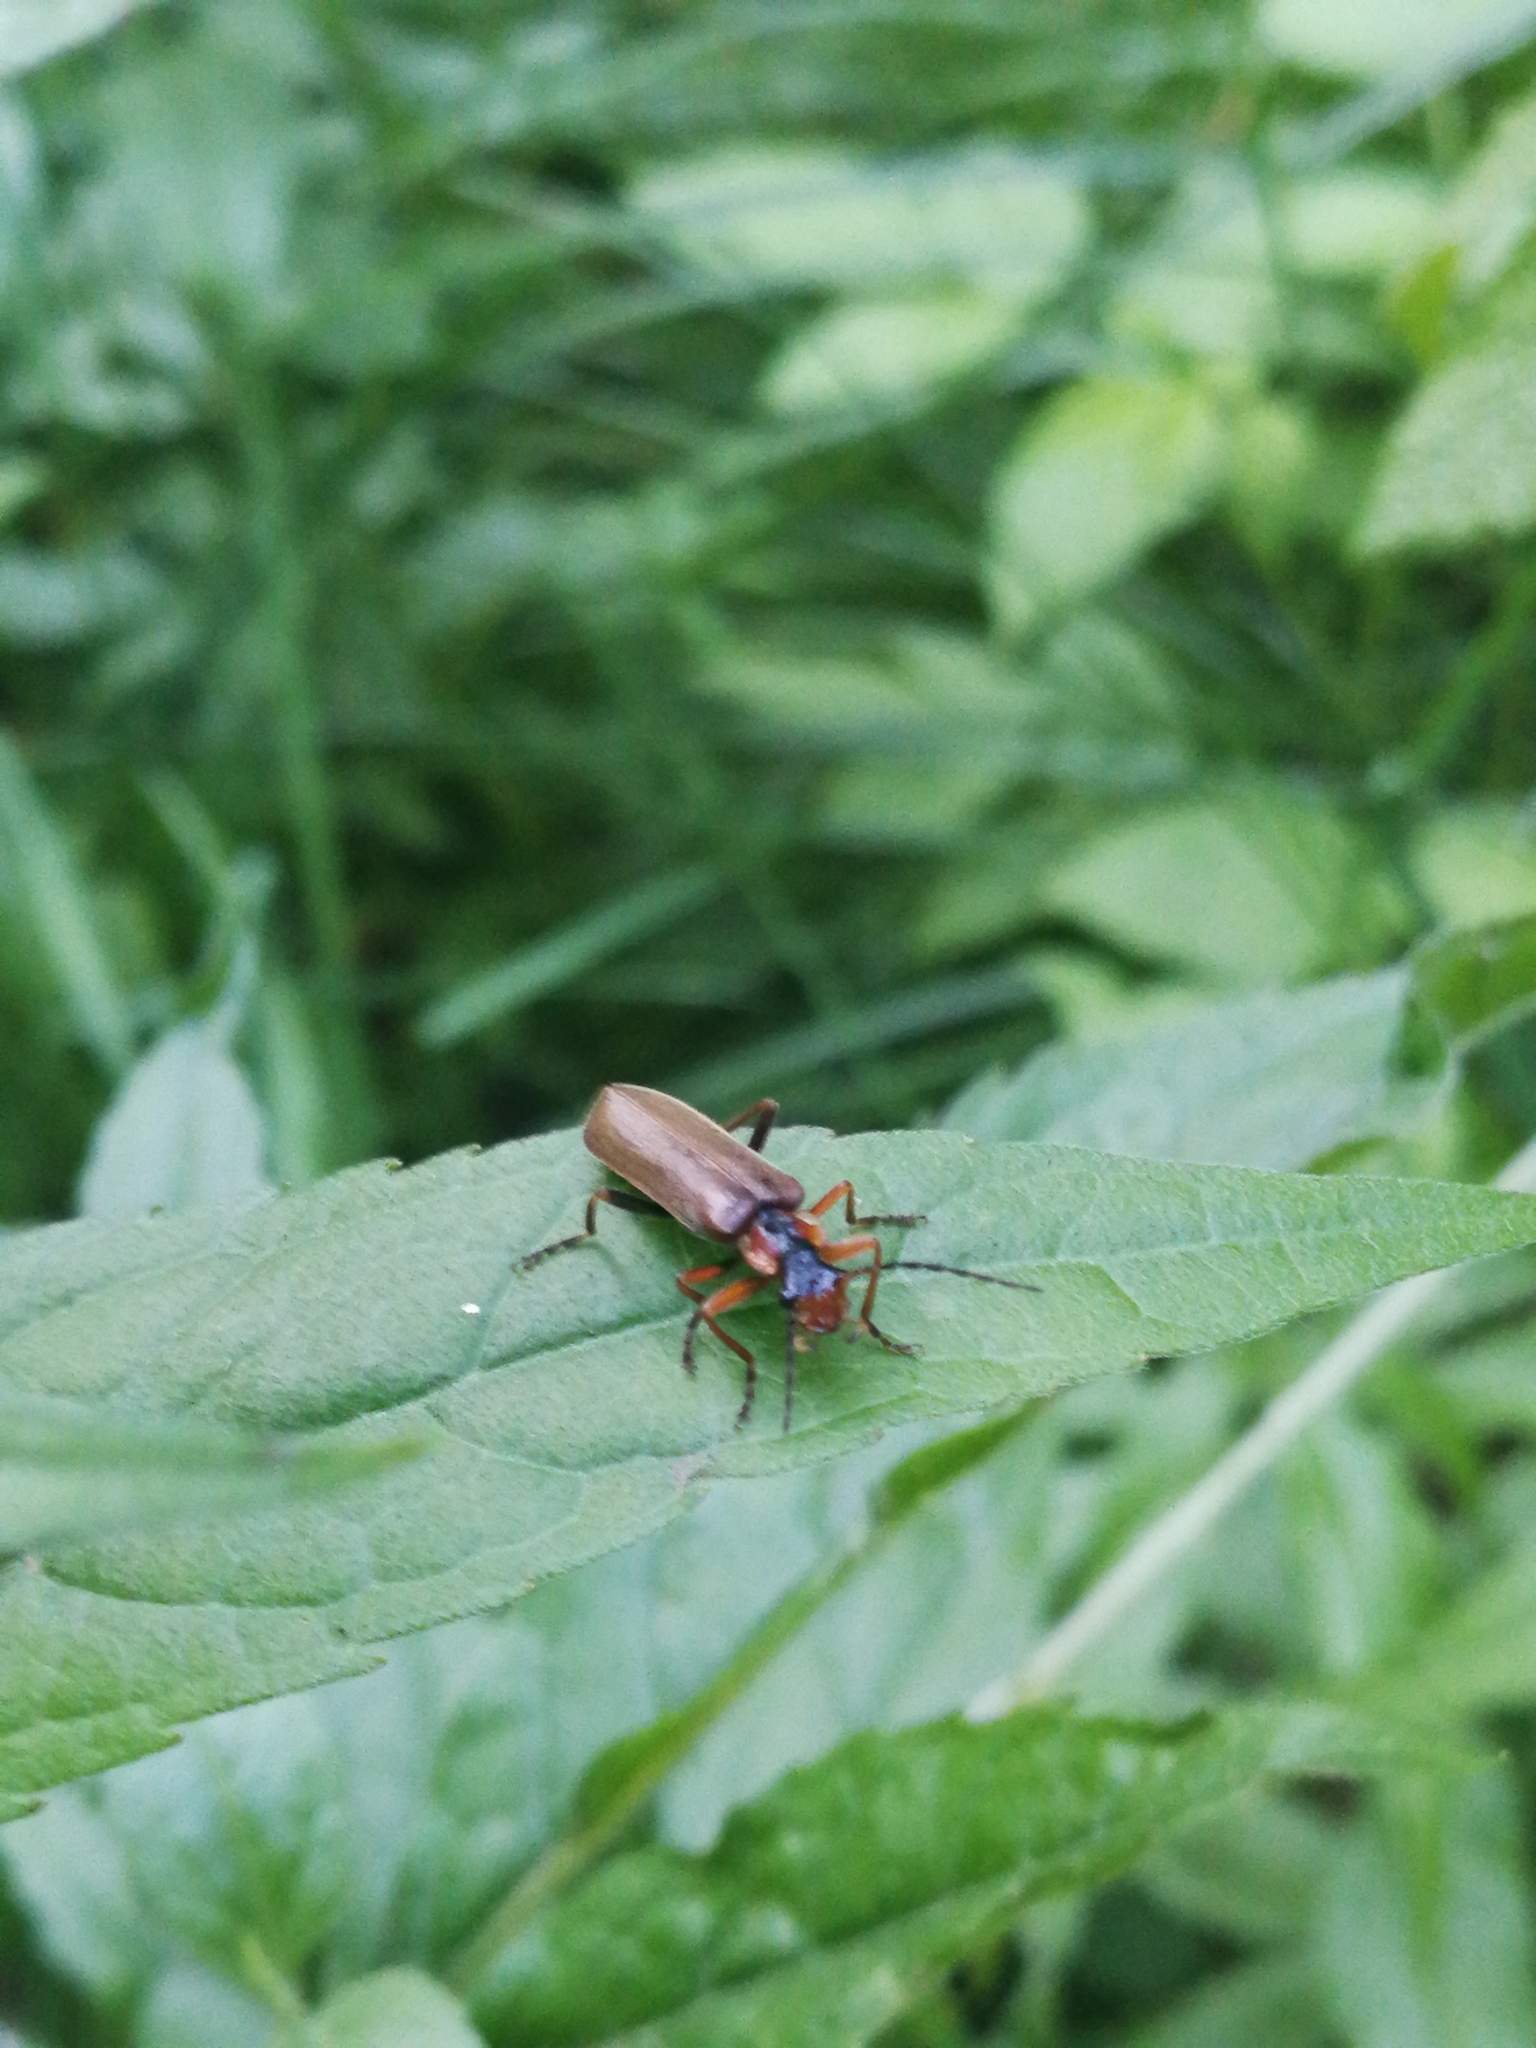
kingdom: Animalia
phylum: Arthropoda
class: Insecta
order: Coleoptera
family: Cantharidae
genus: Podabrus
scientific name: Podabrus alpinus
